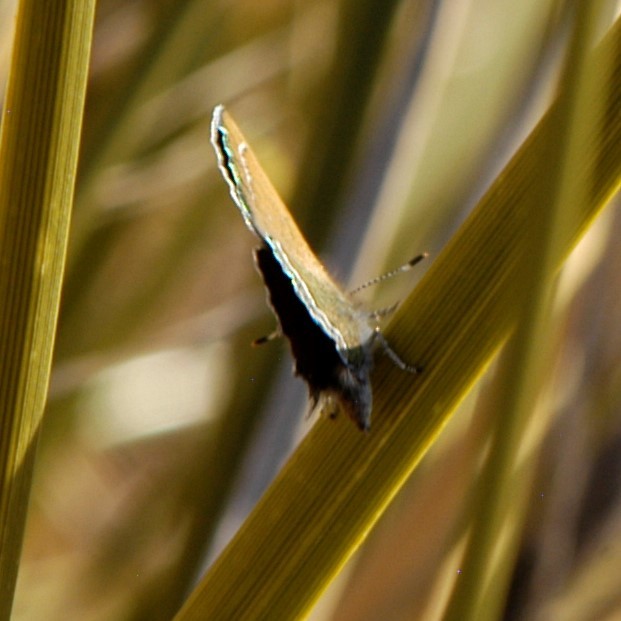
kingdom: Animalia
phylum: Arthropoda
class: Insecta
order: Lepidoptera
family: Lycaenidae
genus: Sandia
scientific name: Sandia mcfarlandi
